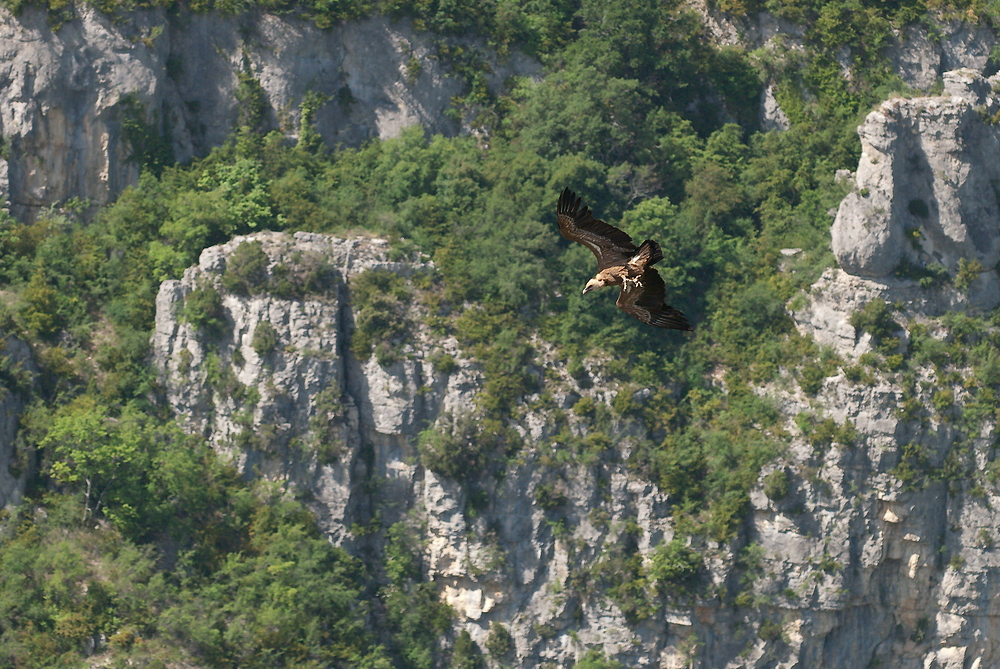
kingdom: Animalia
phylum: Chordata
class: Aves
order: Accipitriformes
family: Accipitridae
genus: Gyps
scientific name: Gyps fulvus
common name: Griffon vulture
